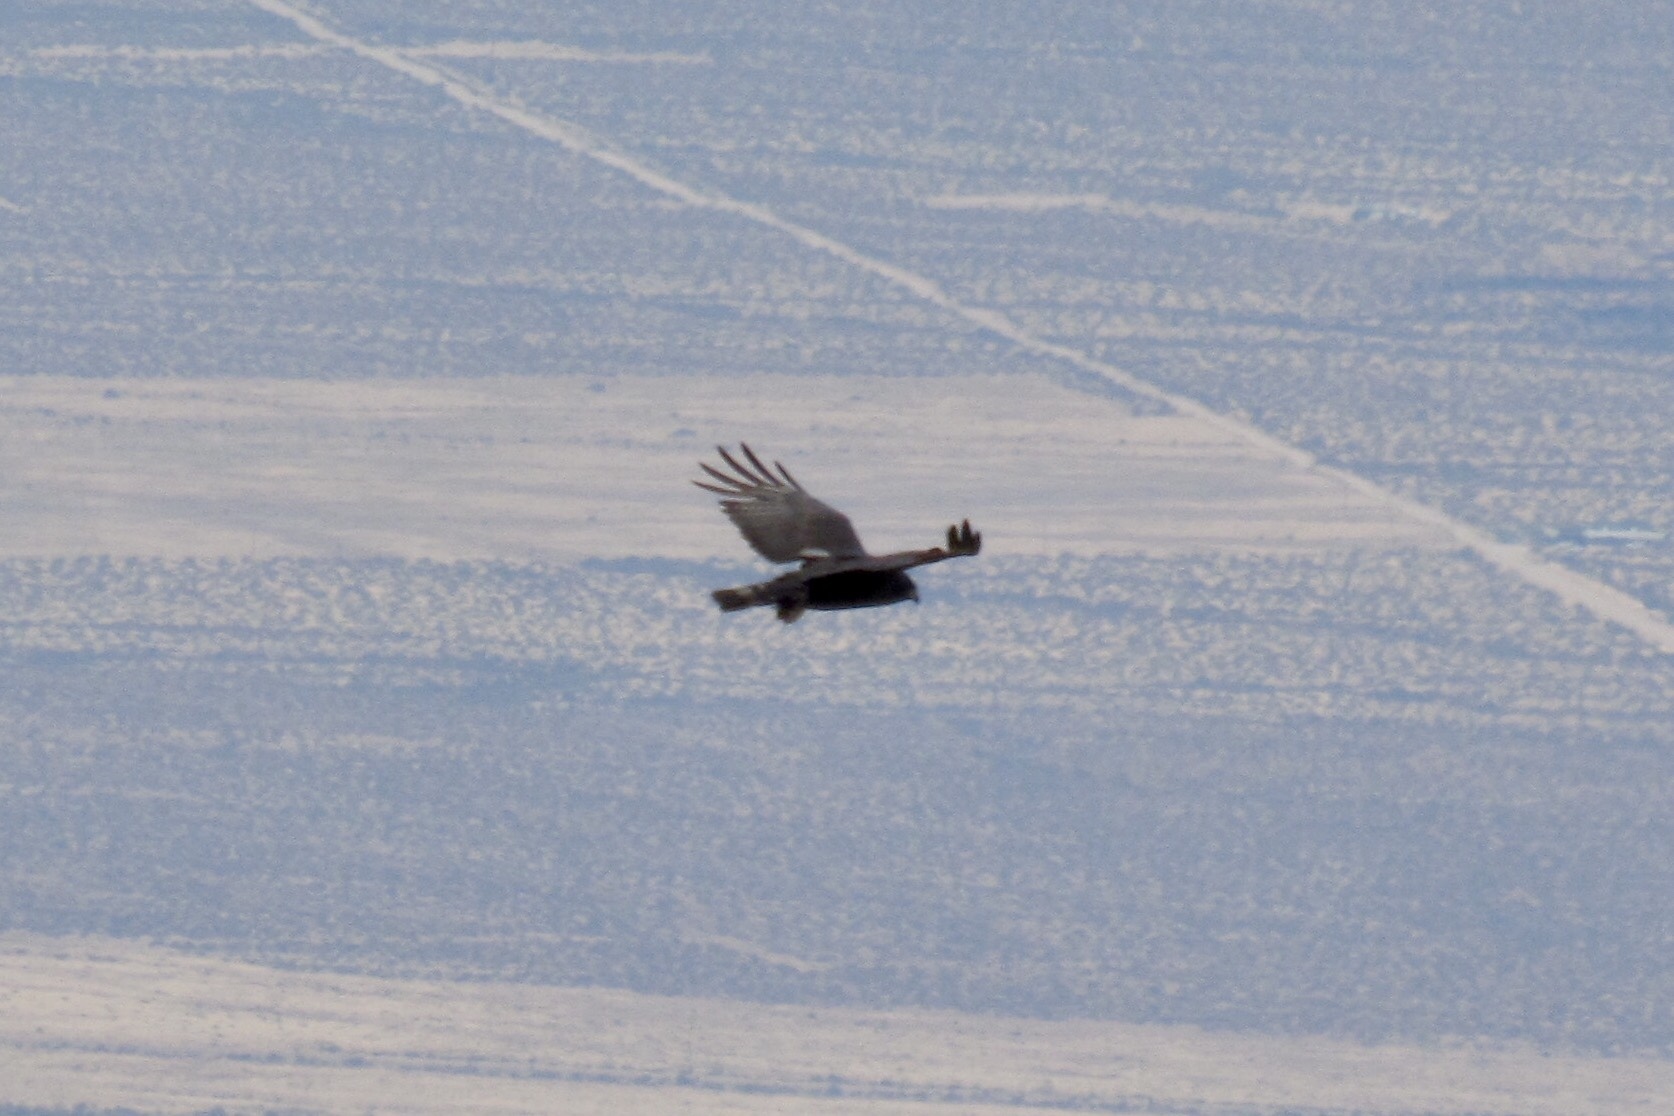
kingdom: Animalia
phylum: Chordata
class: Aves
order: Accipitriformes
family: Accipitridae
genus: Buteo
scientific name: Buteo albonotatus
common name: Zone-tailed hawk
